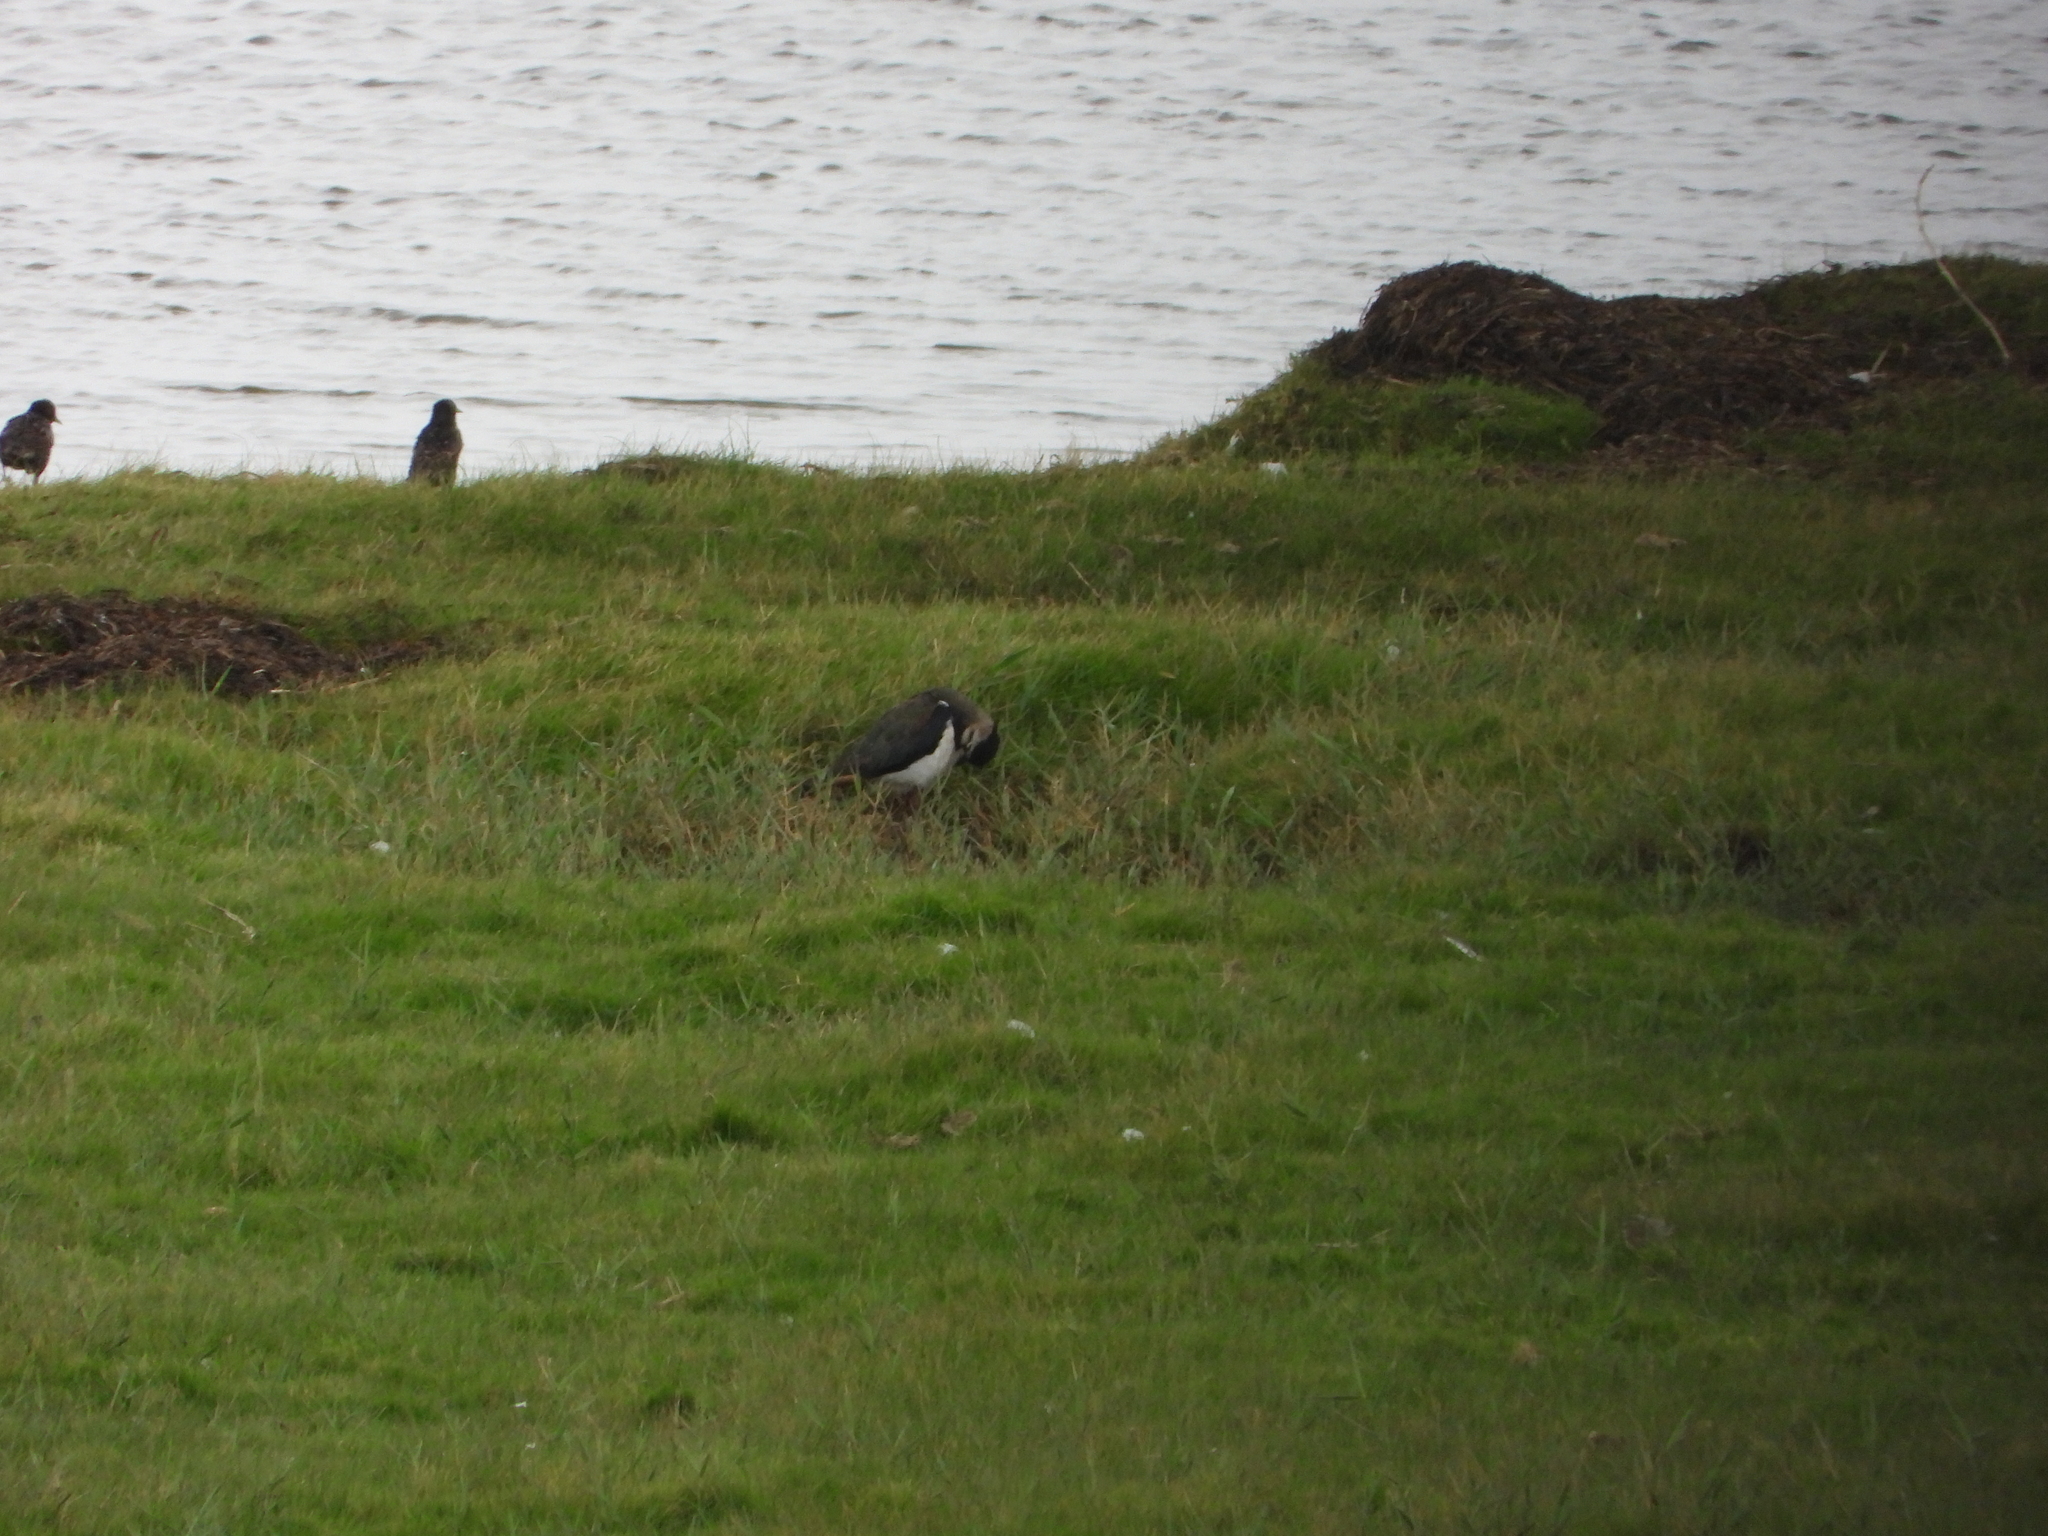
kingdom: Animalia
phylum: Chordata
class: Aves
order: Charadriiformes
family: Charadriidae
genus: Vanellus
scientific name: Vanellus vanellus
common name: Northern lapwing
